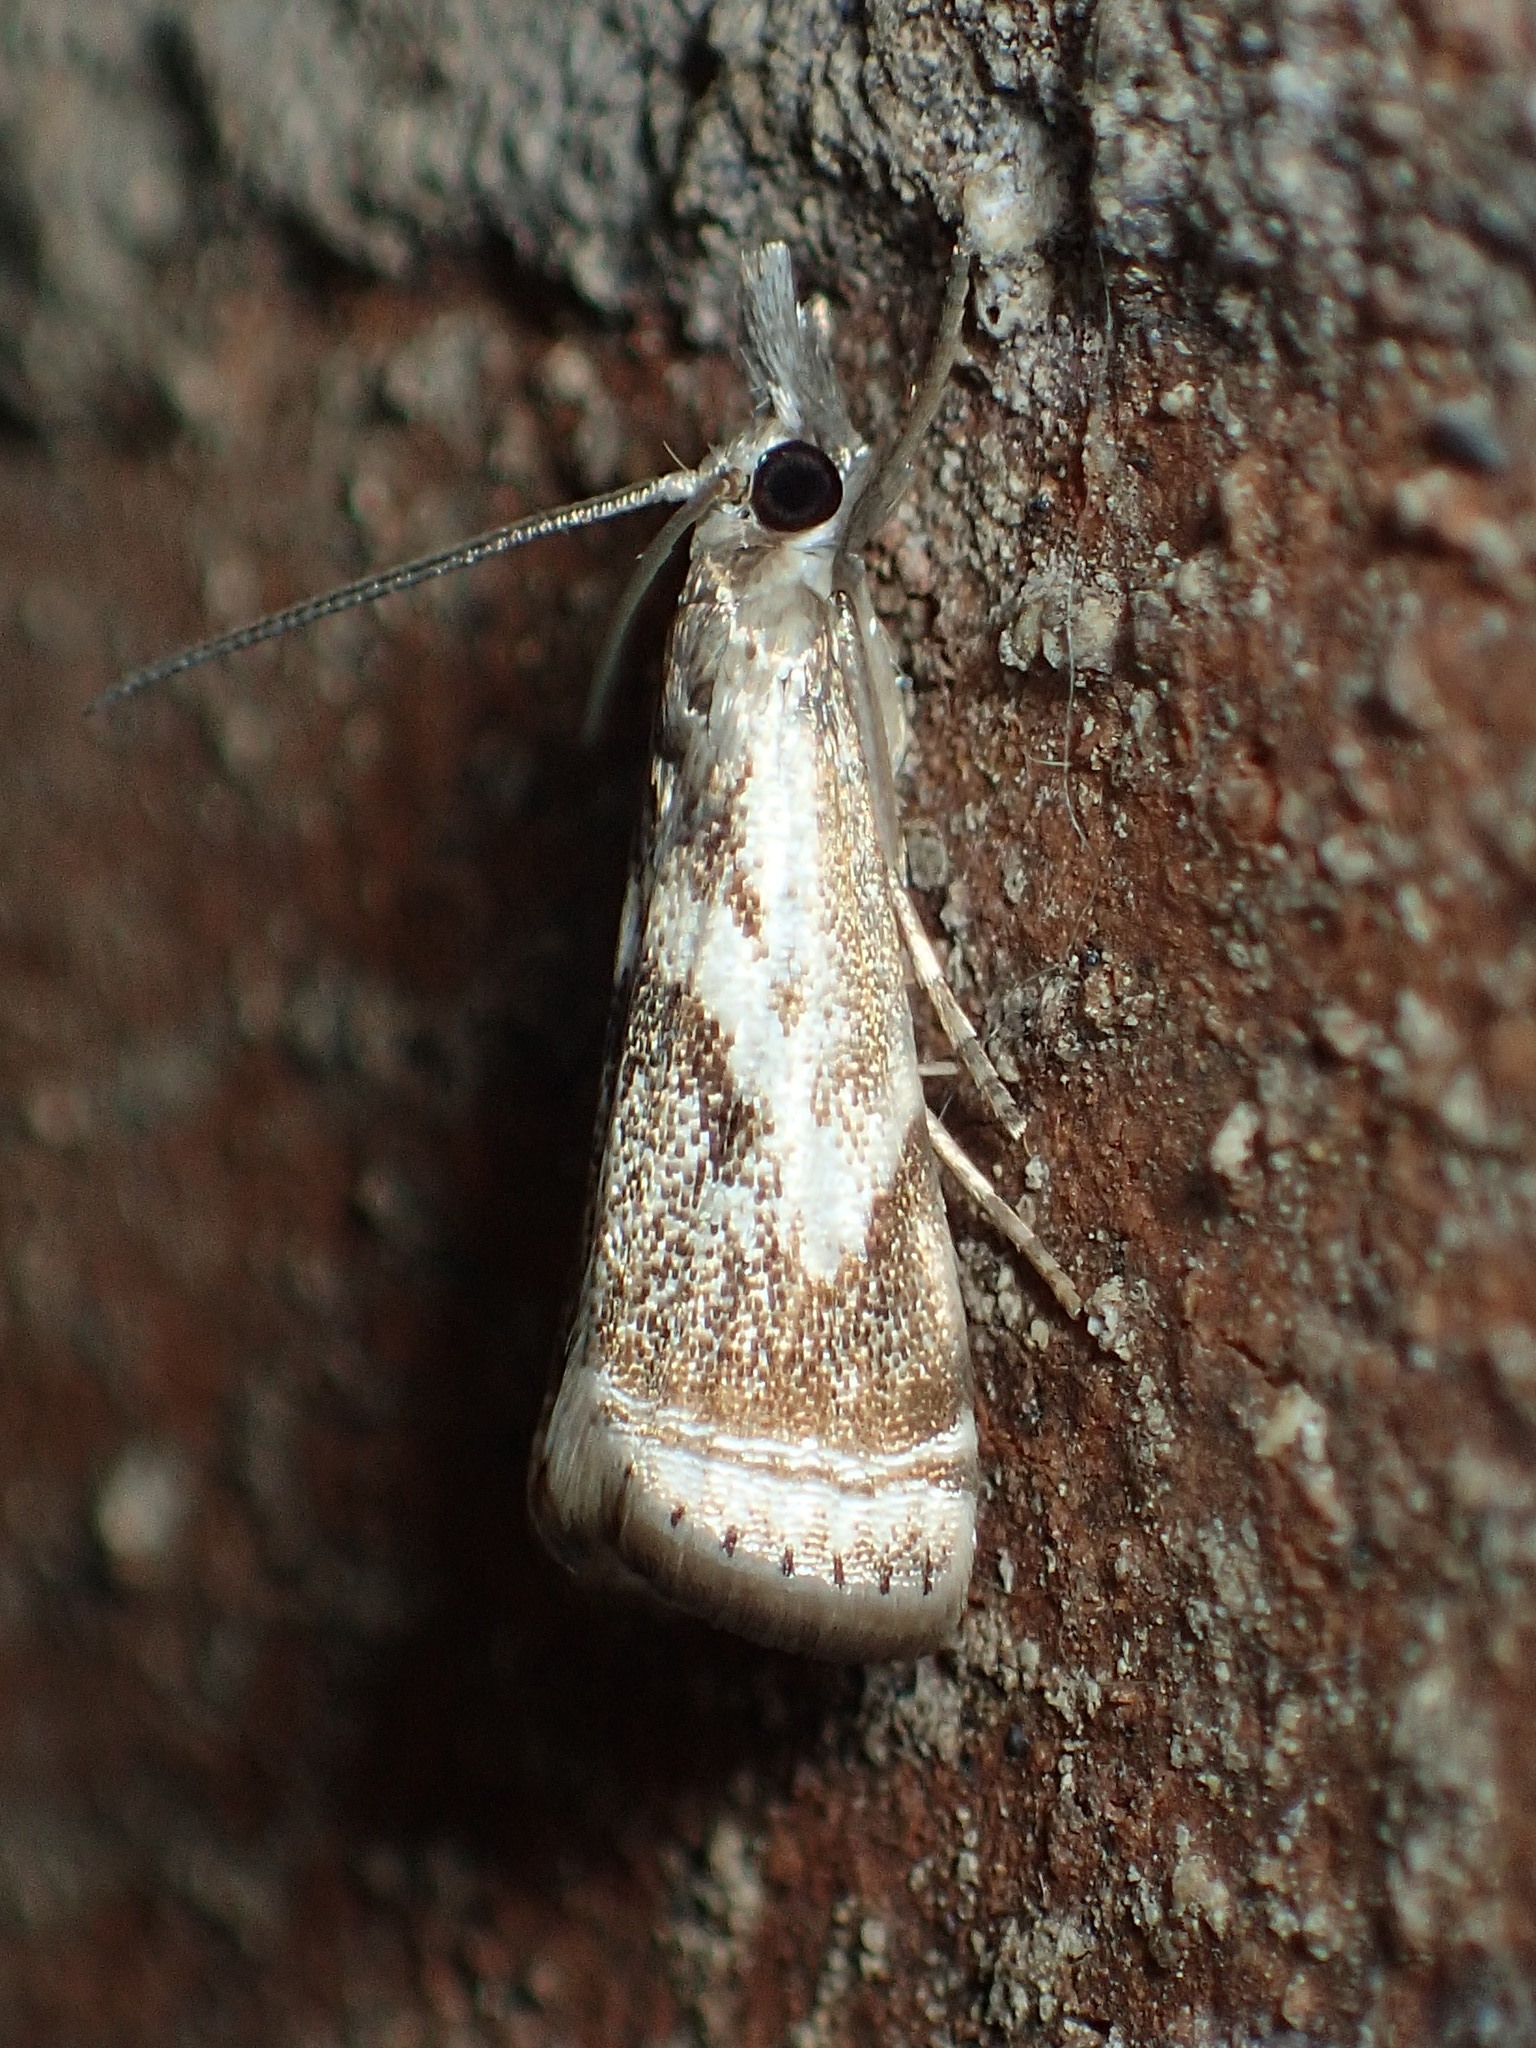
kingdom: Animalia
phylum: Arthropoda
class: Insecta
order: Lepidoptera
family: Crambidae
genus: Microcrambus
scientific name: Microcrambus elegans
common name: Elegant grass-veneer
